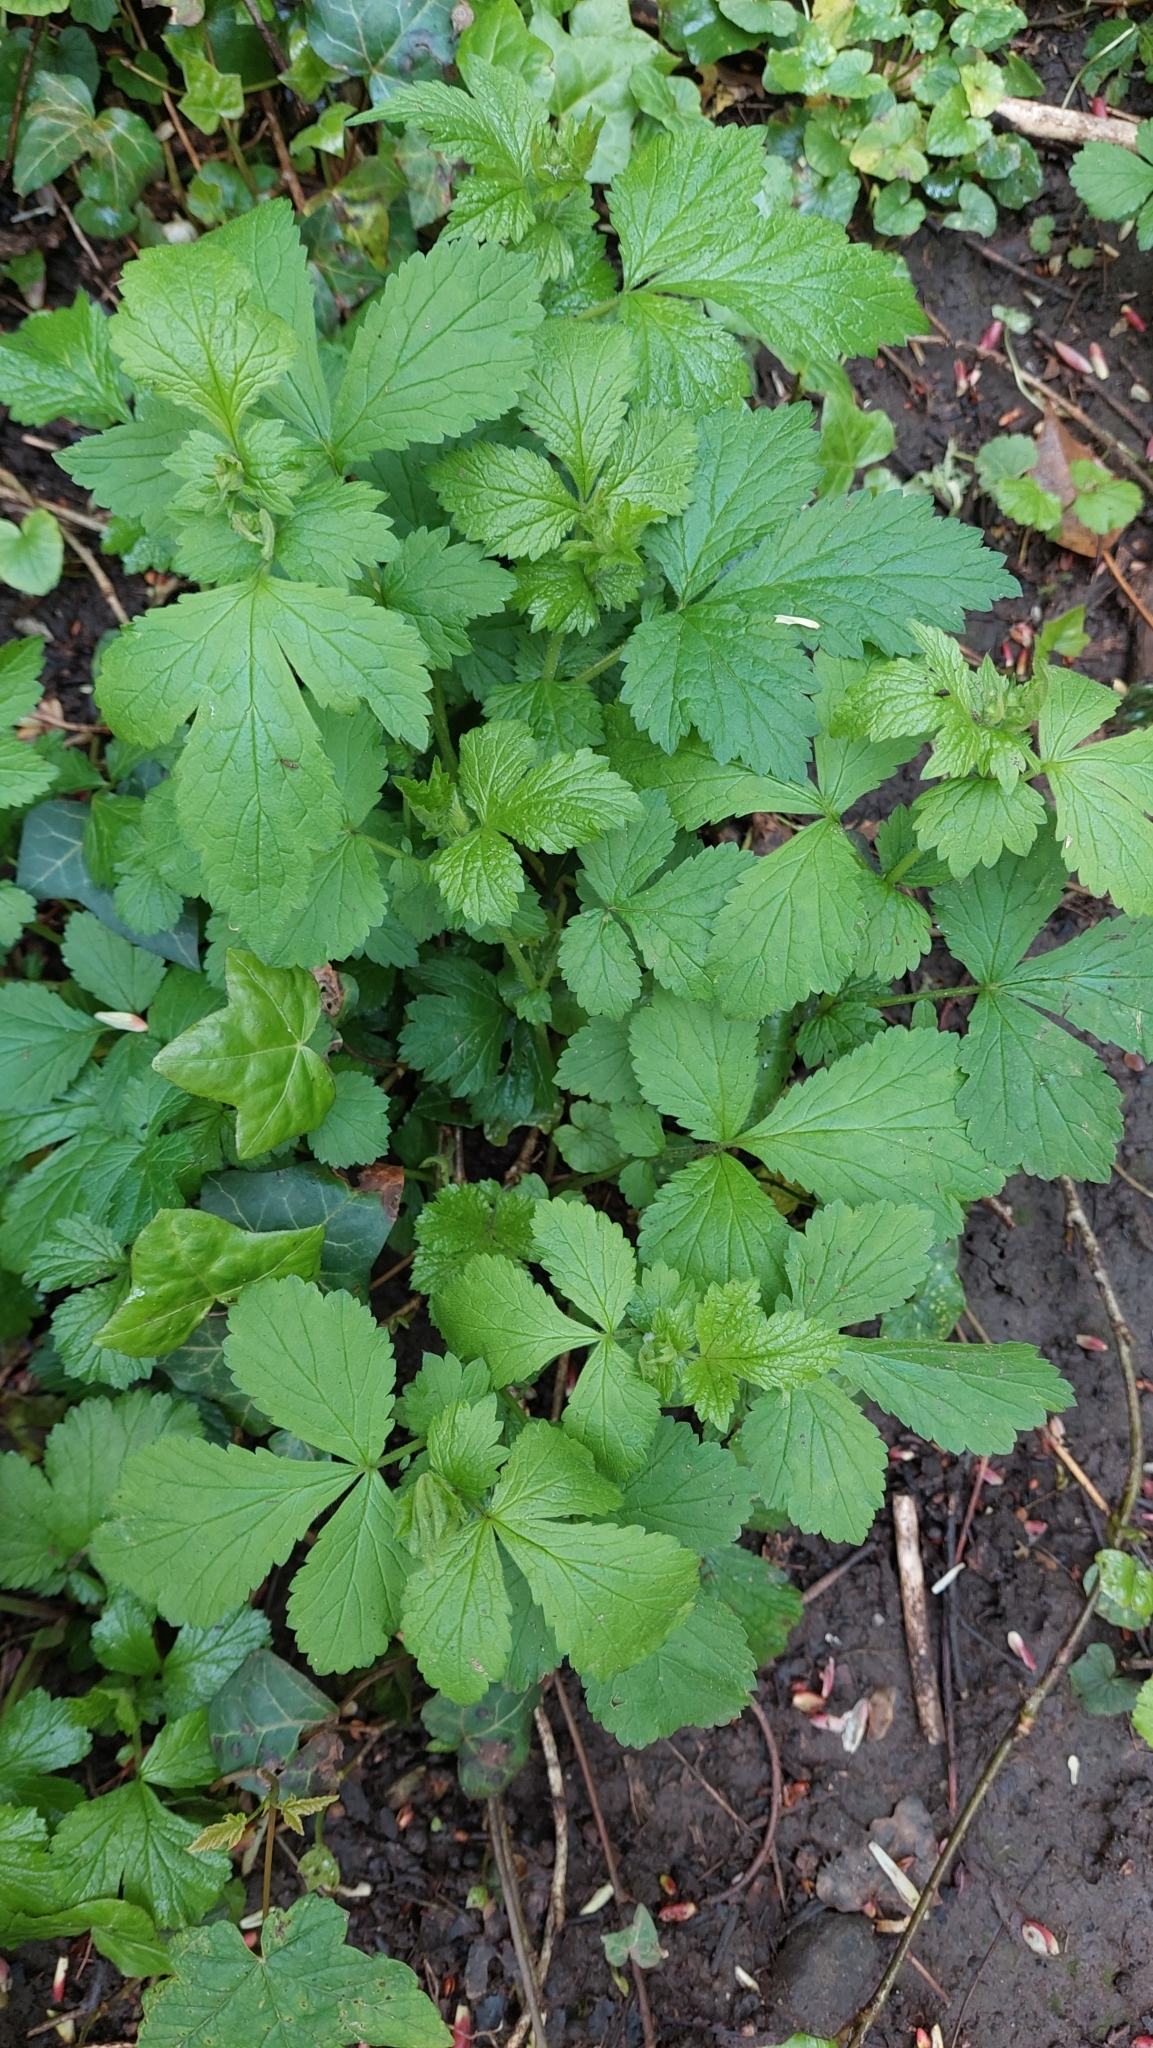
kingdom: Plantae
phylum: Tracheophyta
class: Magnoliopsida
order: Rosales
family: Rosaceae
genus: Geum
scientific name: Geum urbanum
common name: Wood avens
